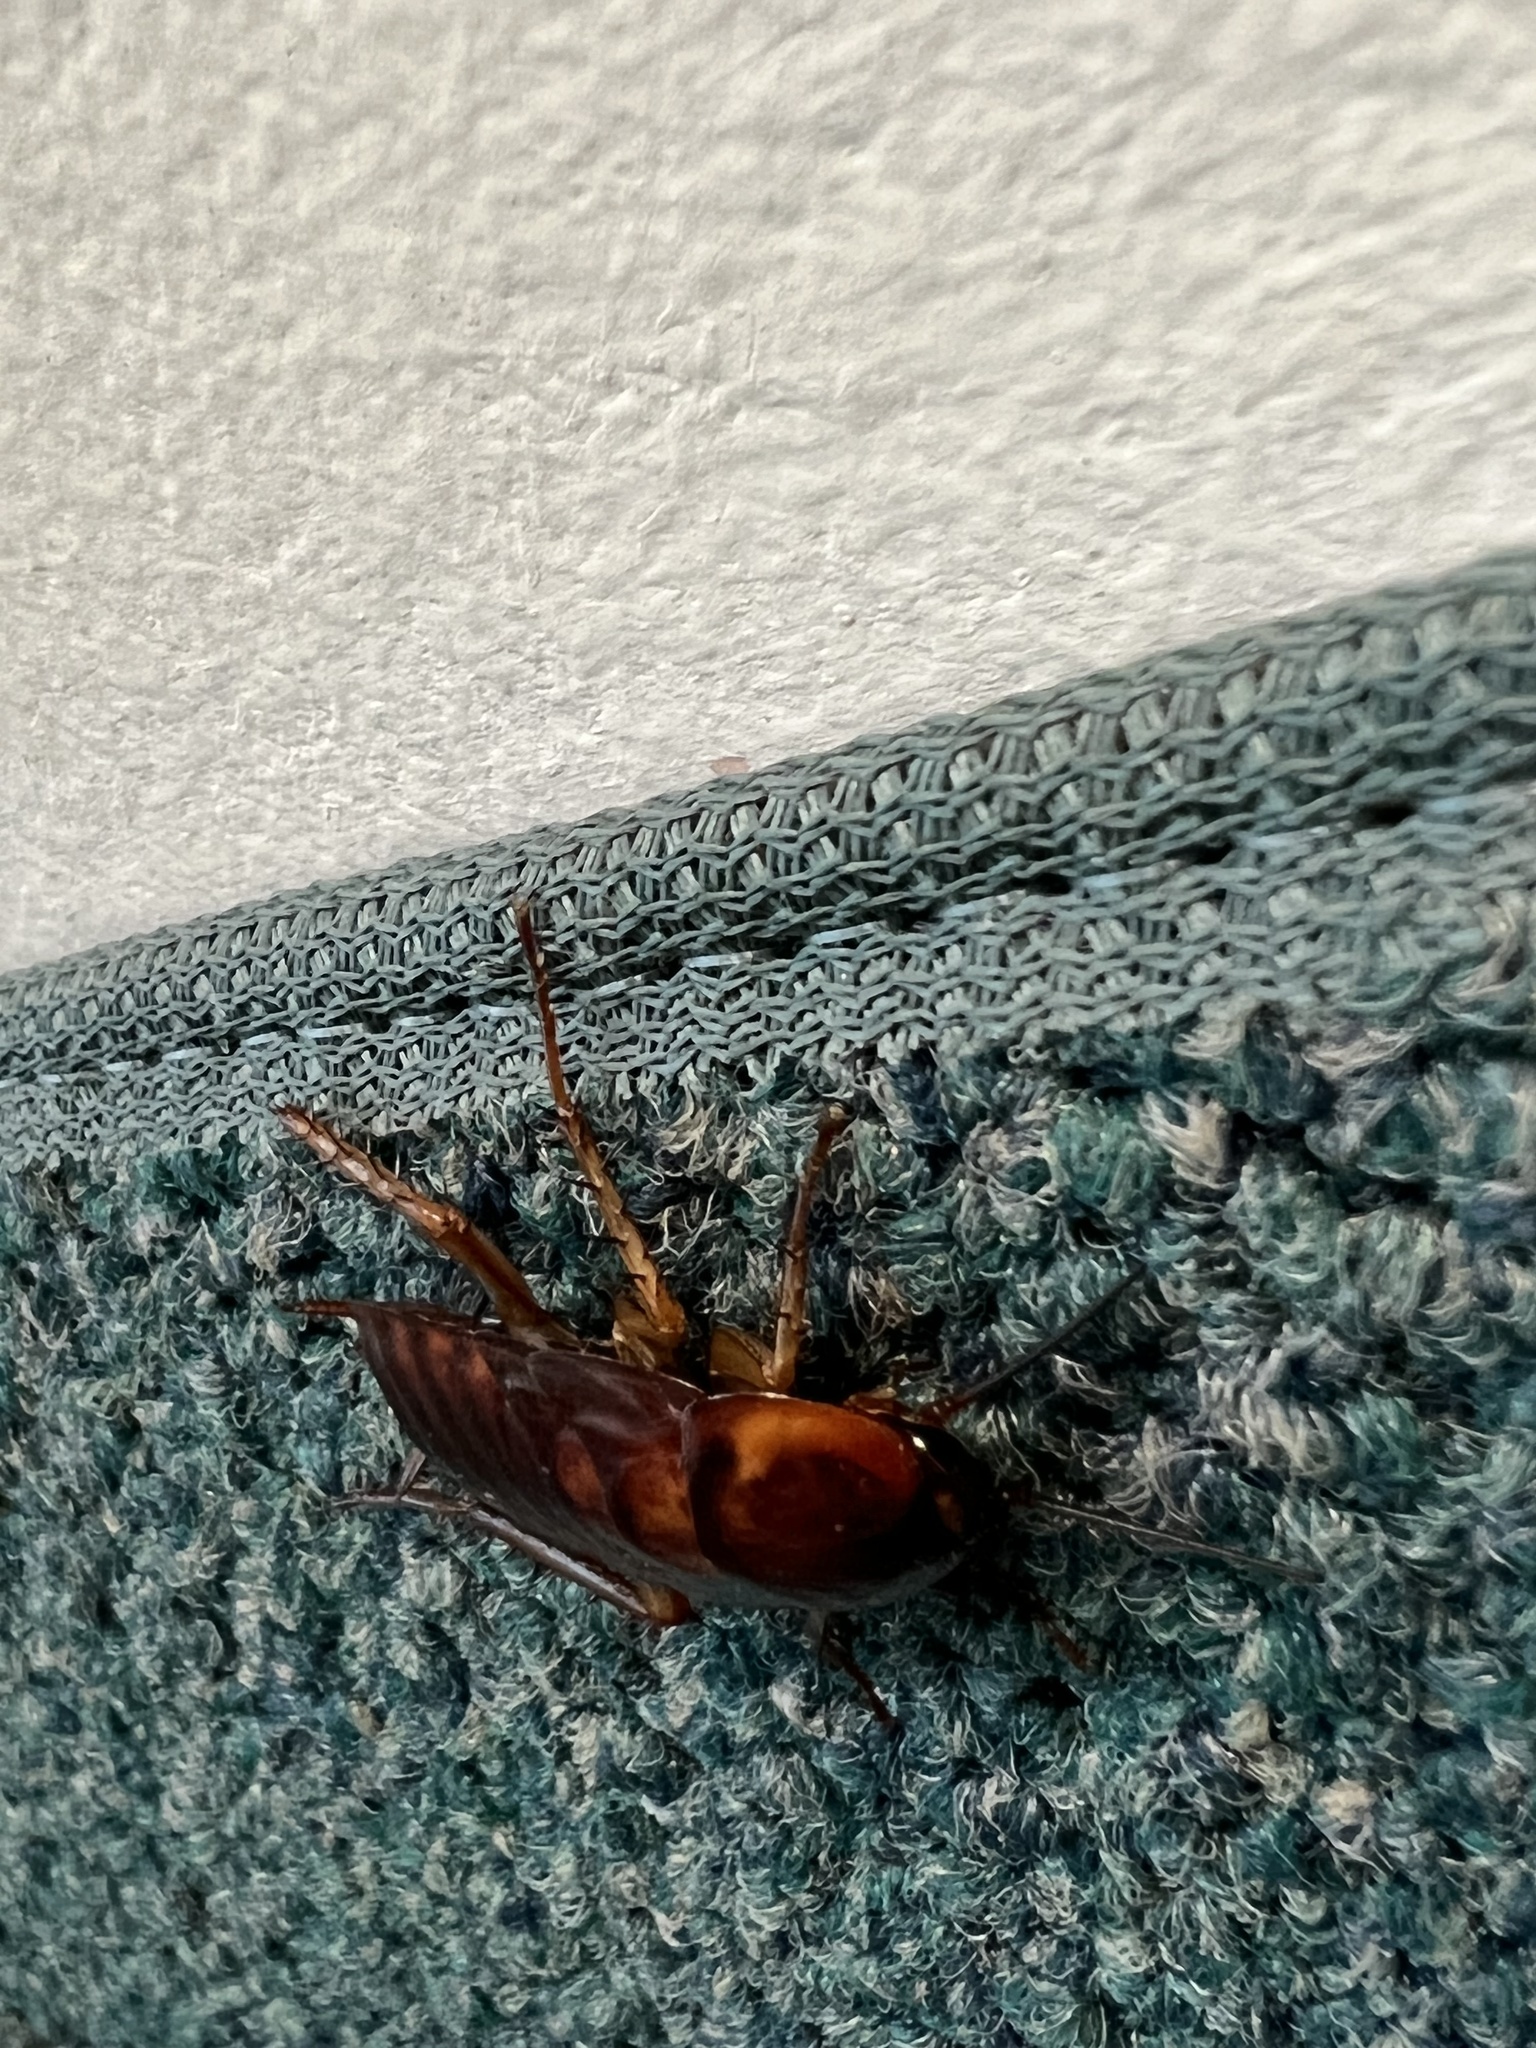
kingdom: Animalia
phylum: Arthropoda
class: Insecta
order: Blattodea
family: Blattidae
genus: Periplaneta
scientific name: Periplaneta americana
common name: American cockroach
